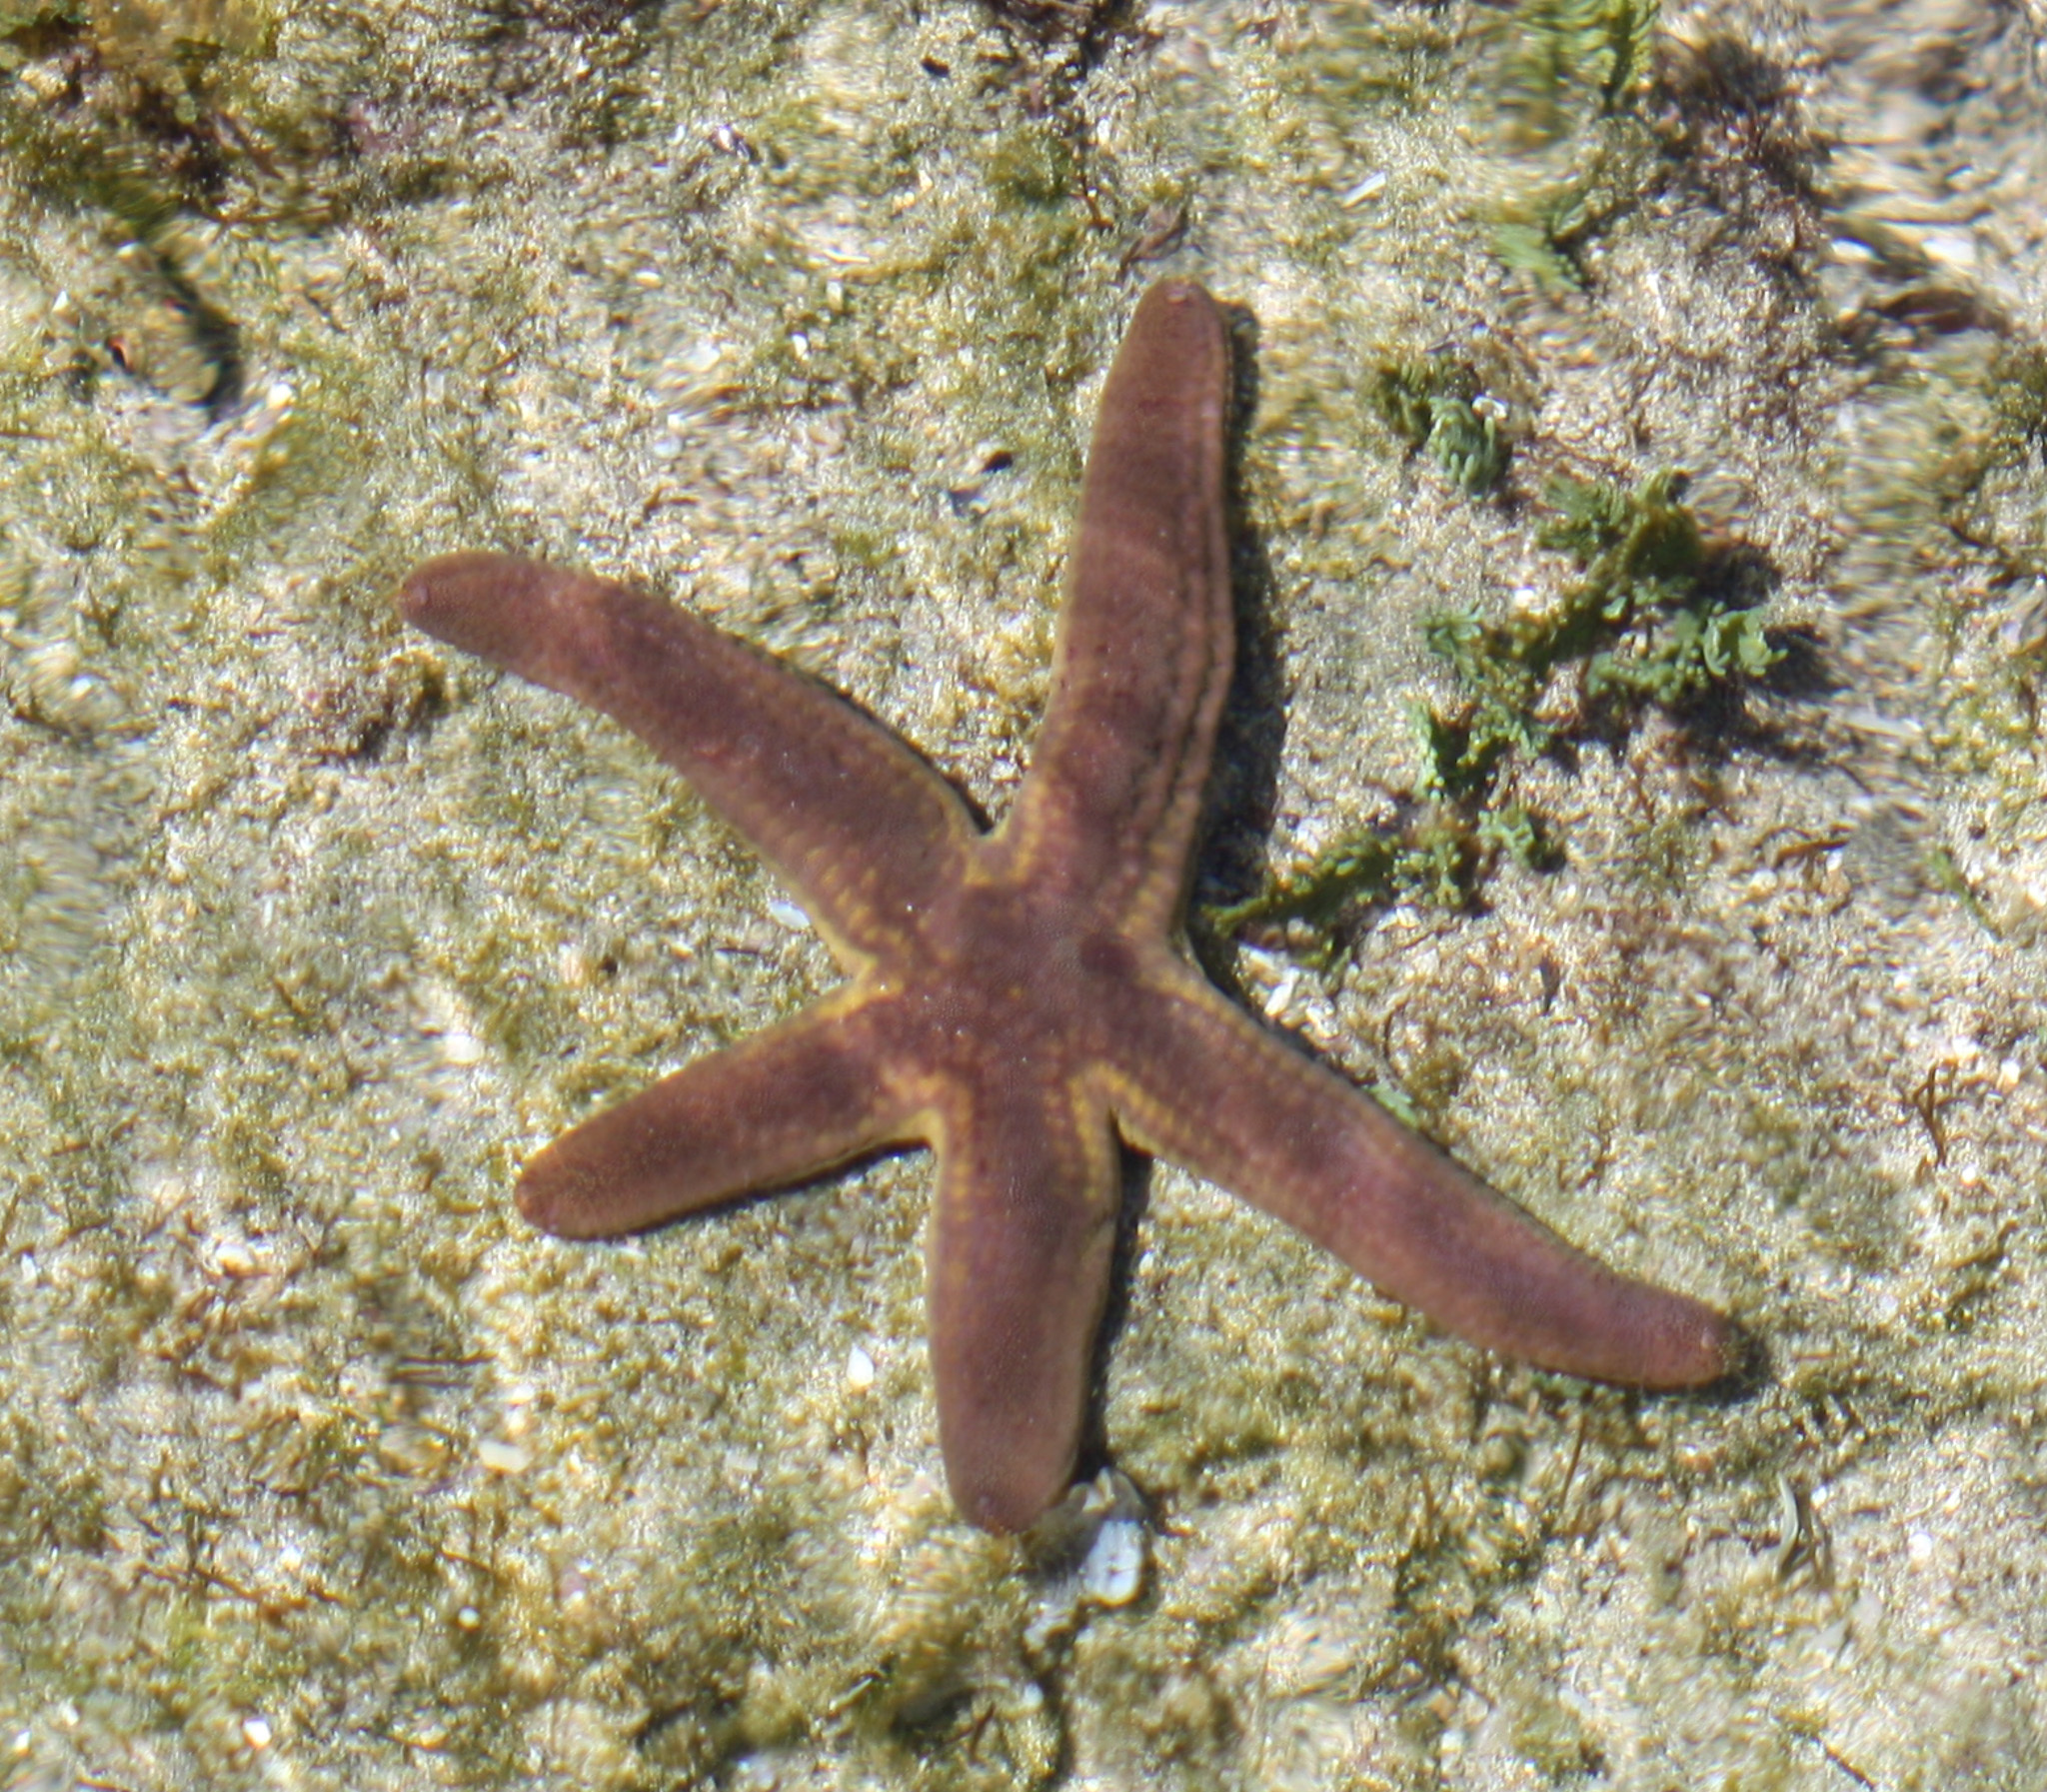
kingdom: Animalia
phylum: Echinodermata
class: Asteroidea
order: Valvatida
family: Ophidiasteridae
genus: Pharia
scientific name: Pharia pyramidata
